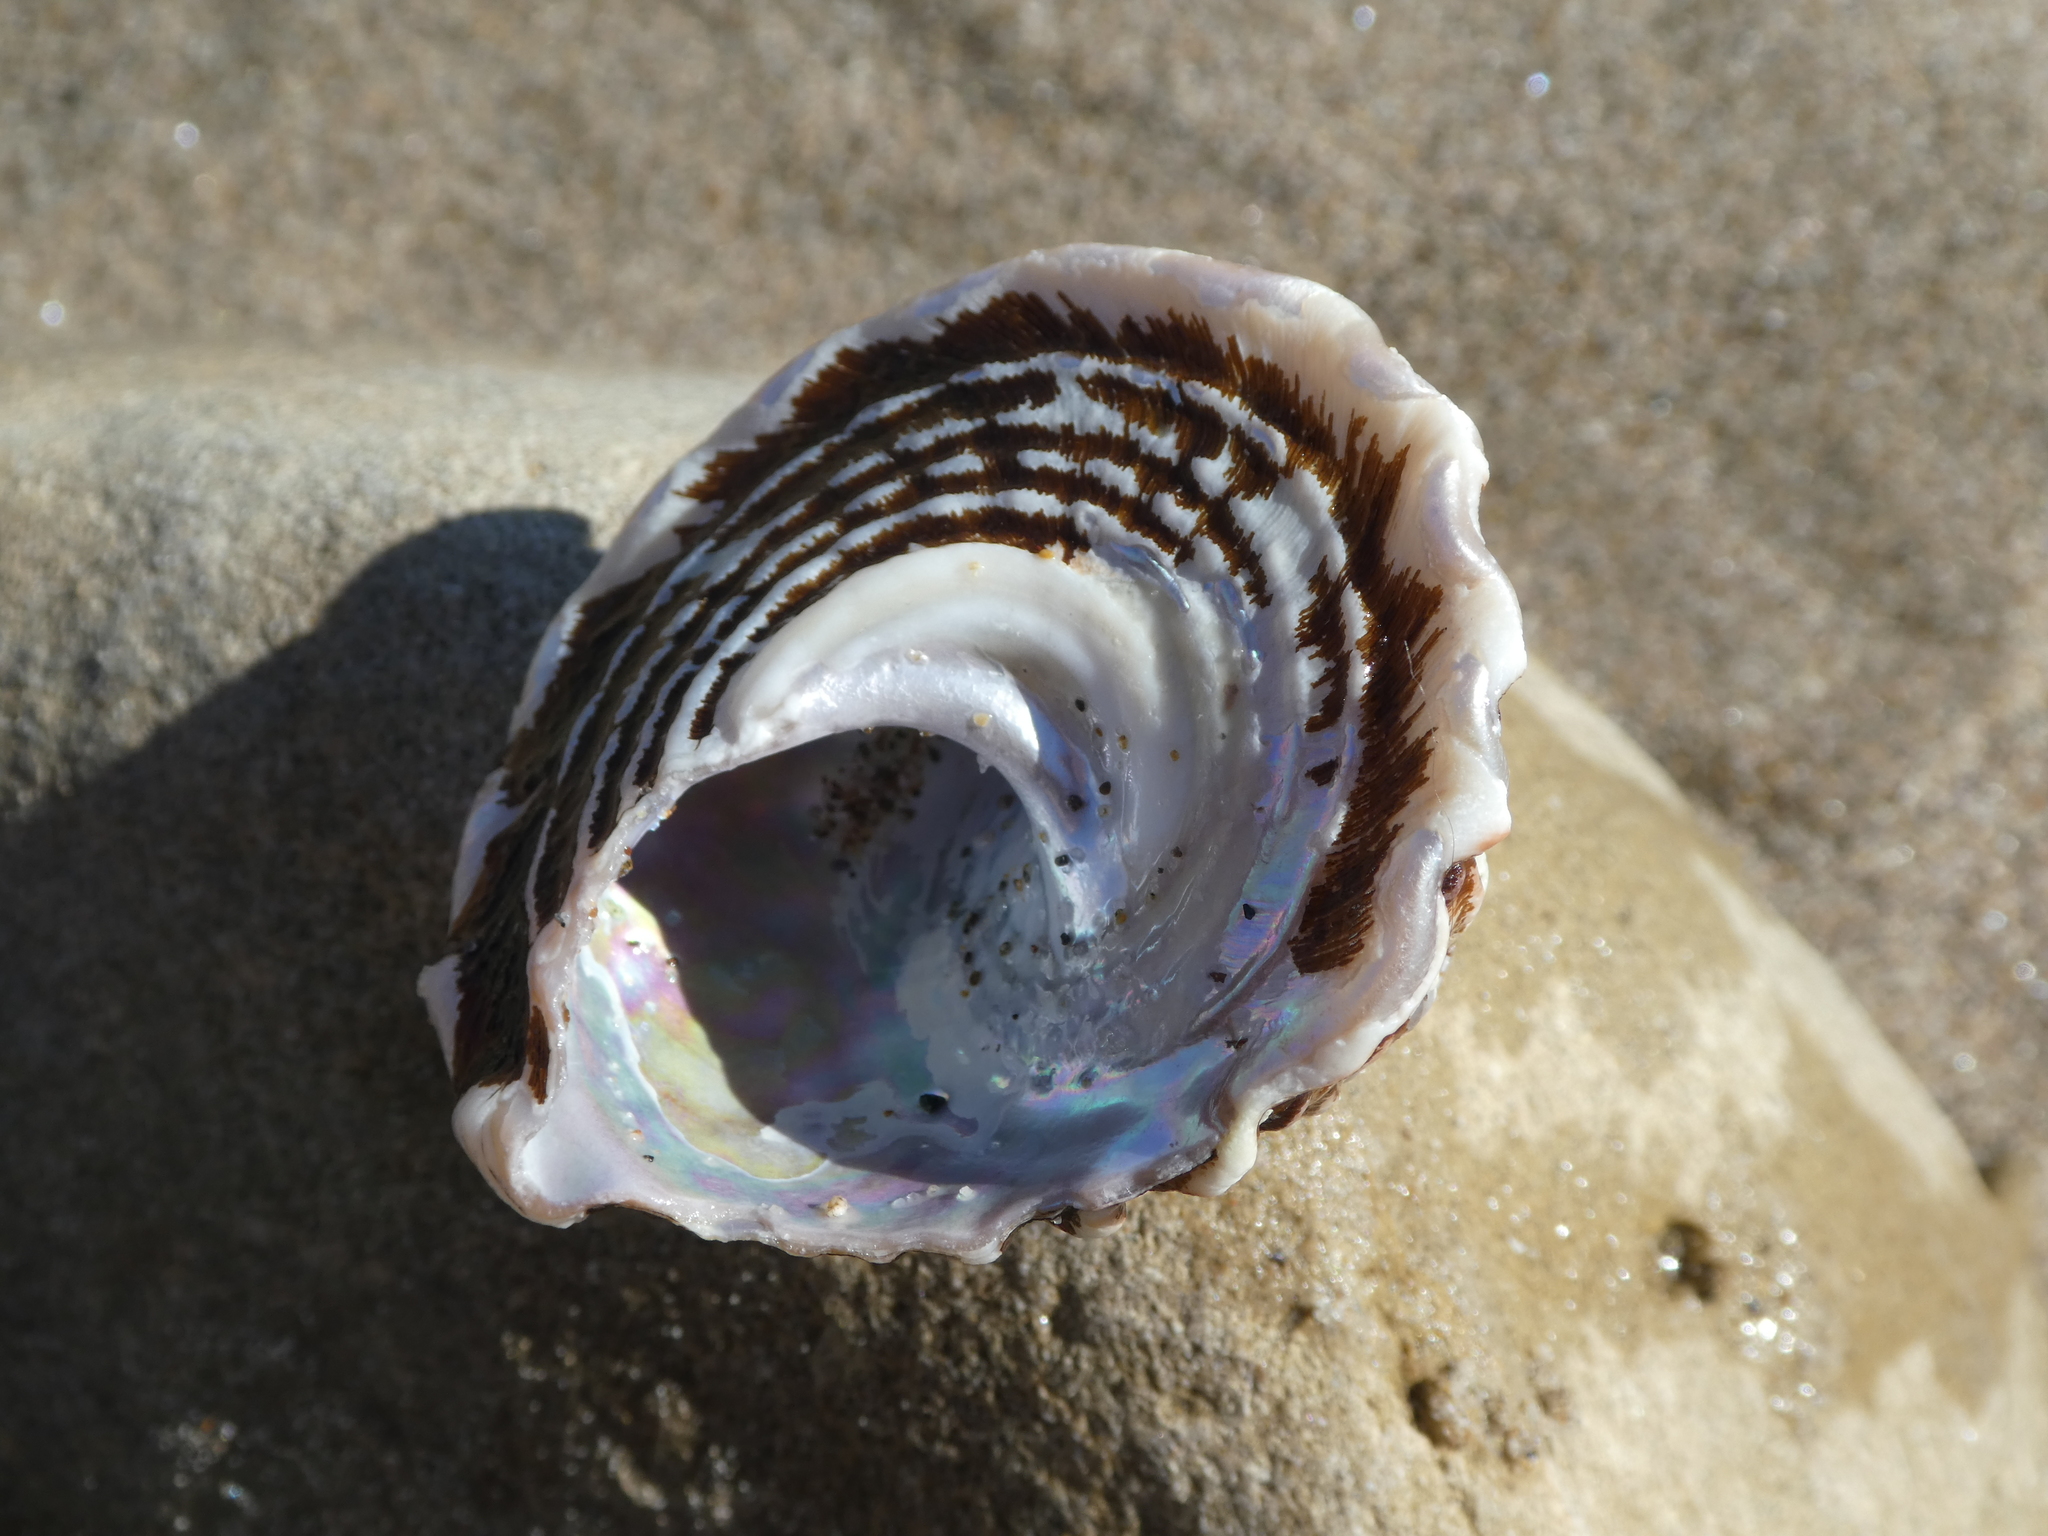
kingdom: Animalia
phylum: Mollusca
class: Gastropoda
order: Trochida
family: Turbinidae
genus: Megastraea
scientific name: Megastraea undosa
